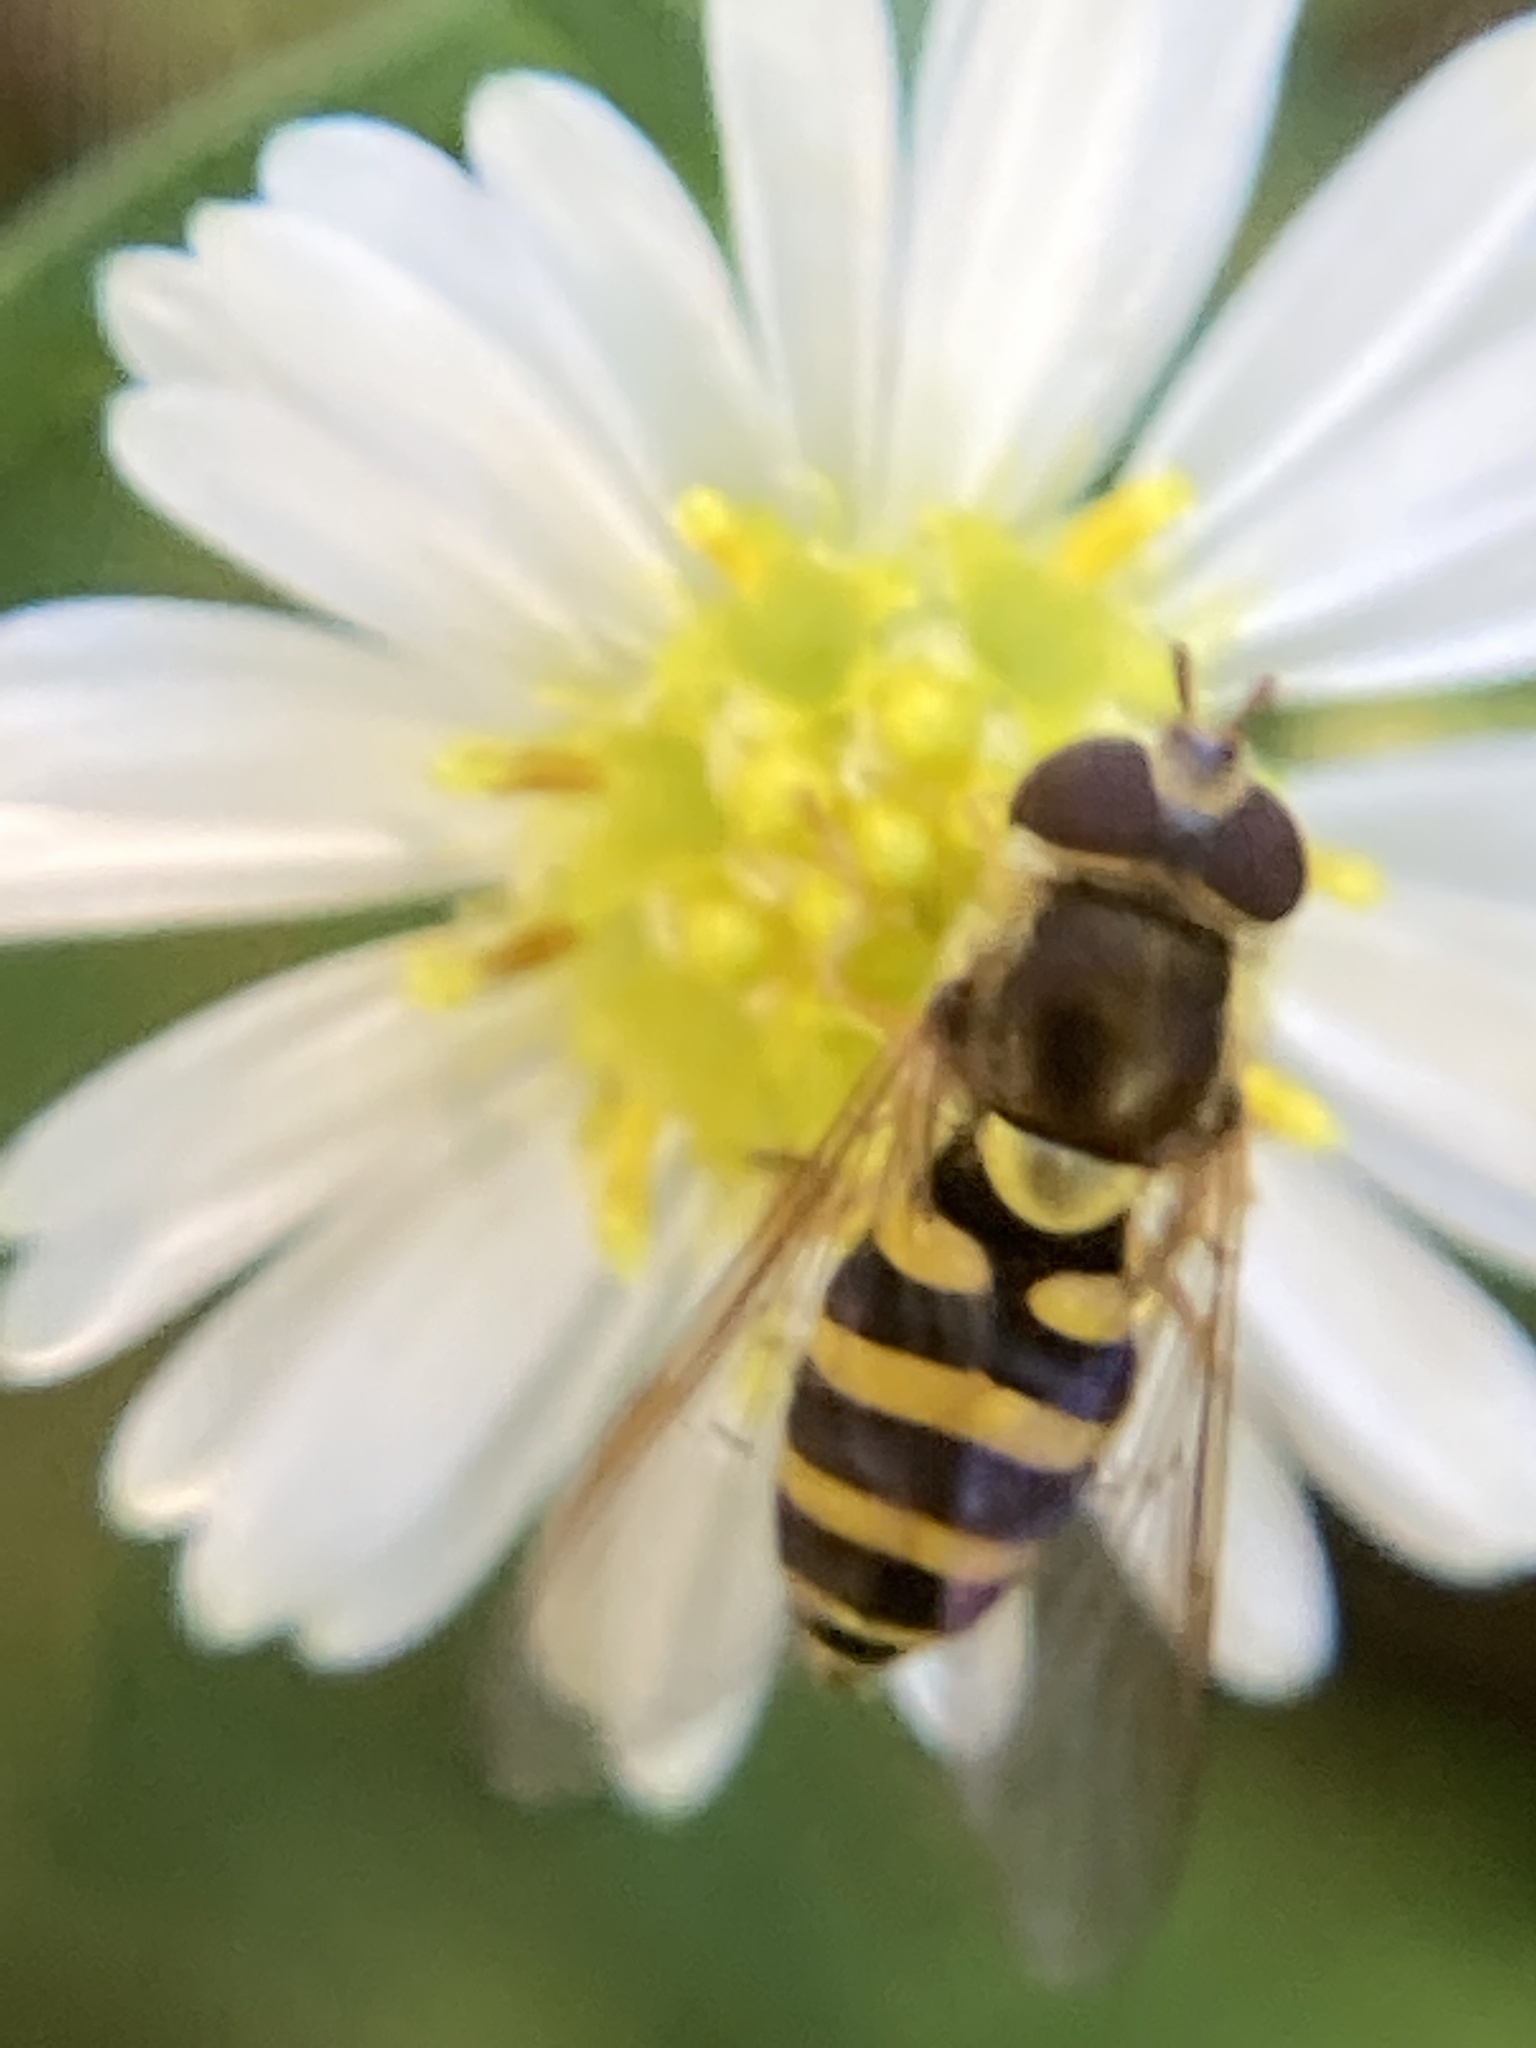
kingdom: Animalia
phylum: Arthropoda
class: Insecta
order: Diptera
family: Syrphidae
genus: Syrphus
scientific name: Syrphus
